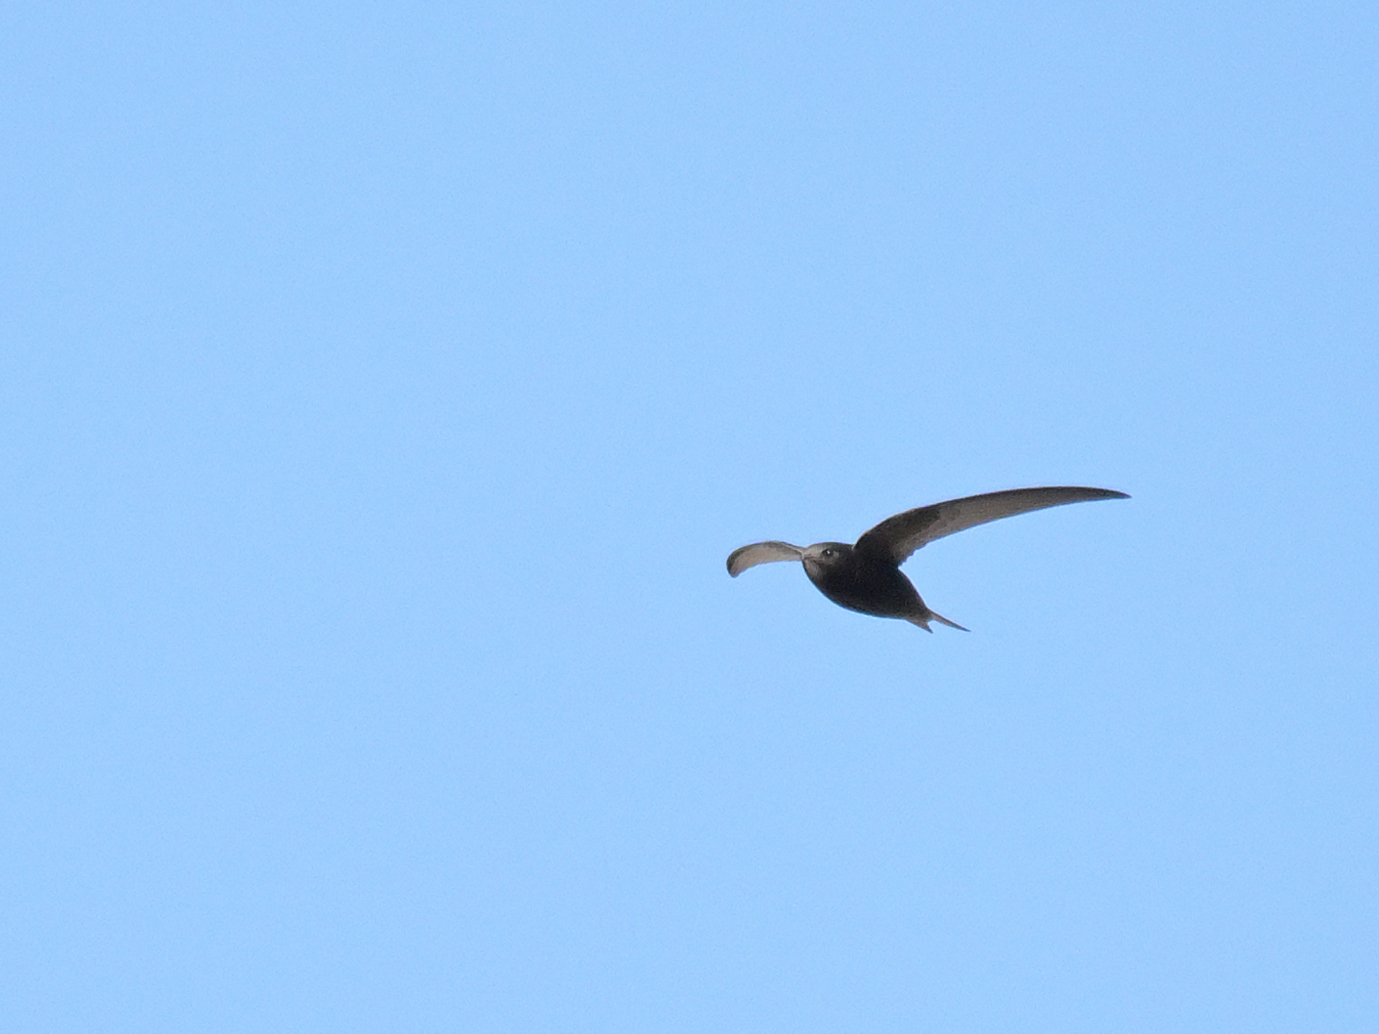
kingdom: Animalia
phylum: Chordata
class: Aves
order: Apodiformes
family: Apodidae
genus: Apus
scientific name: Apus apus
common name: Common swift
